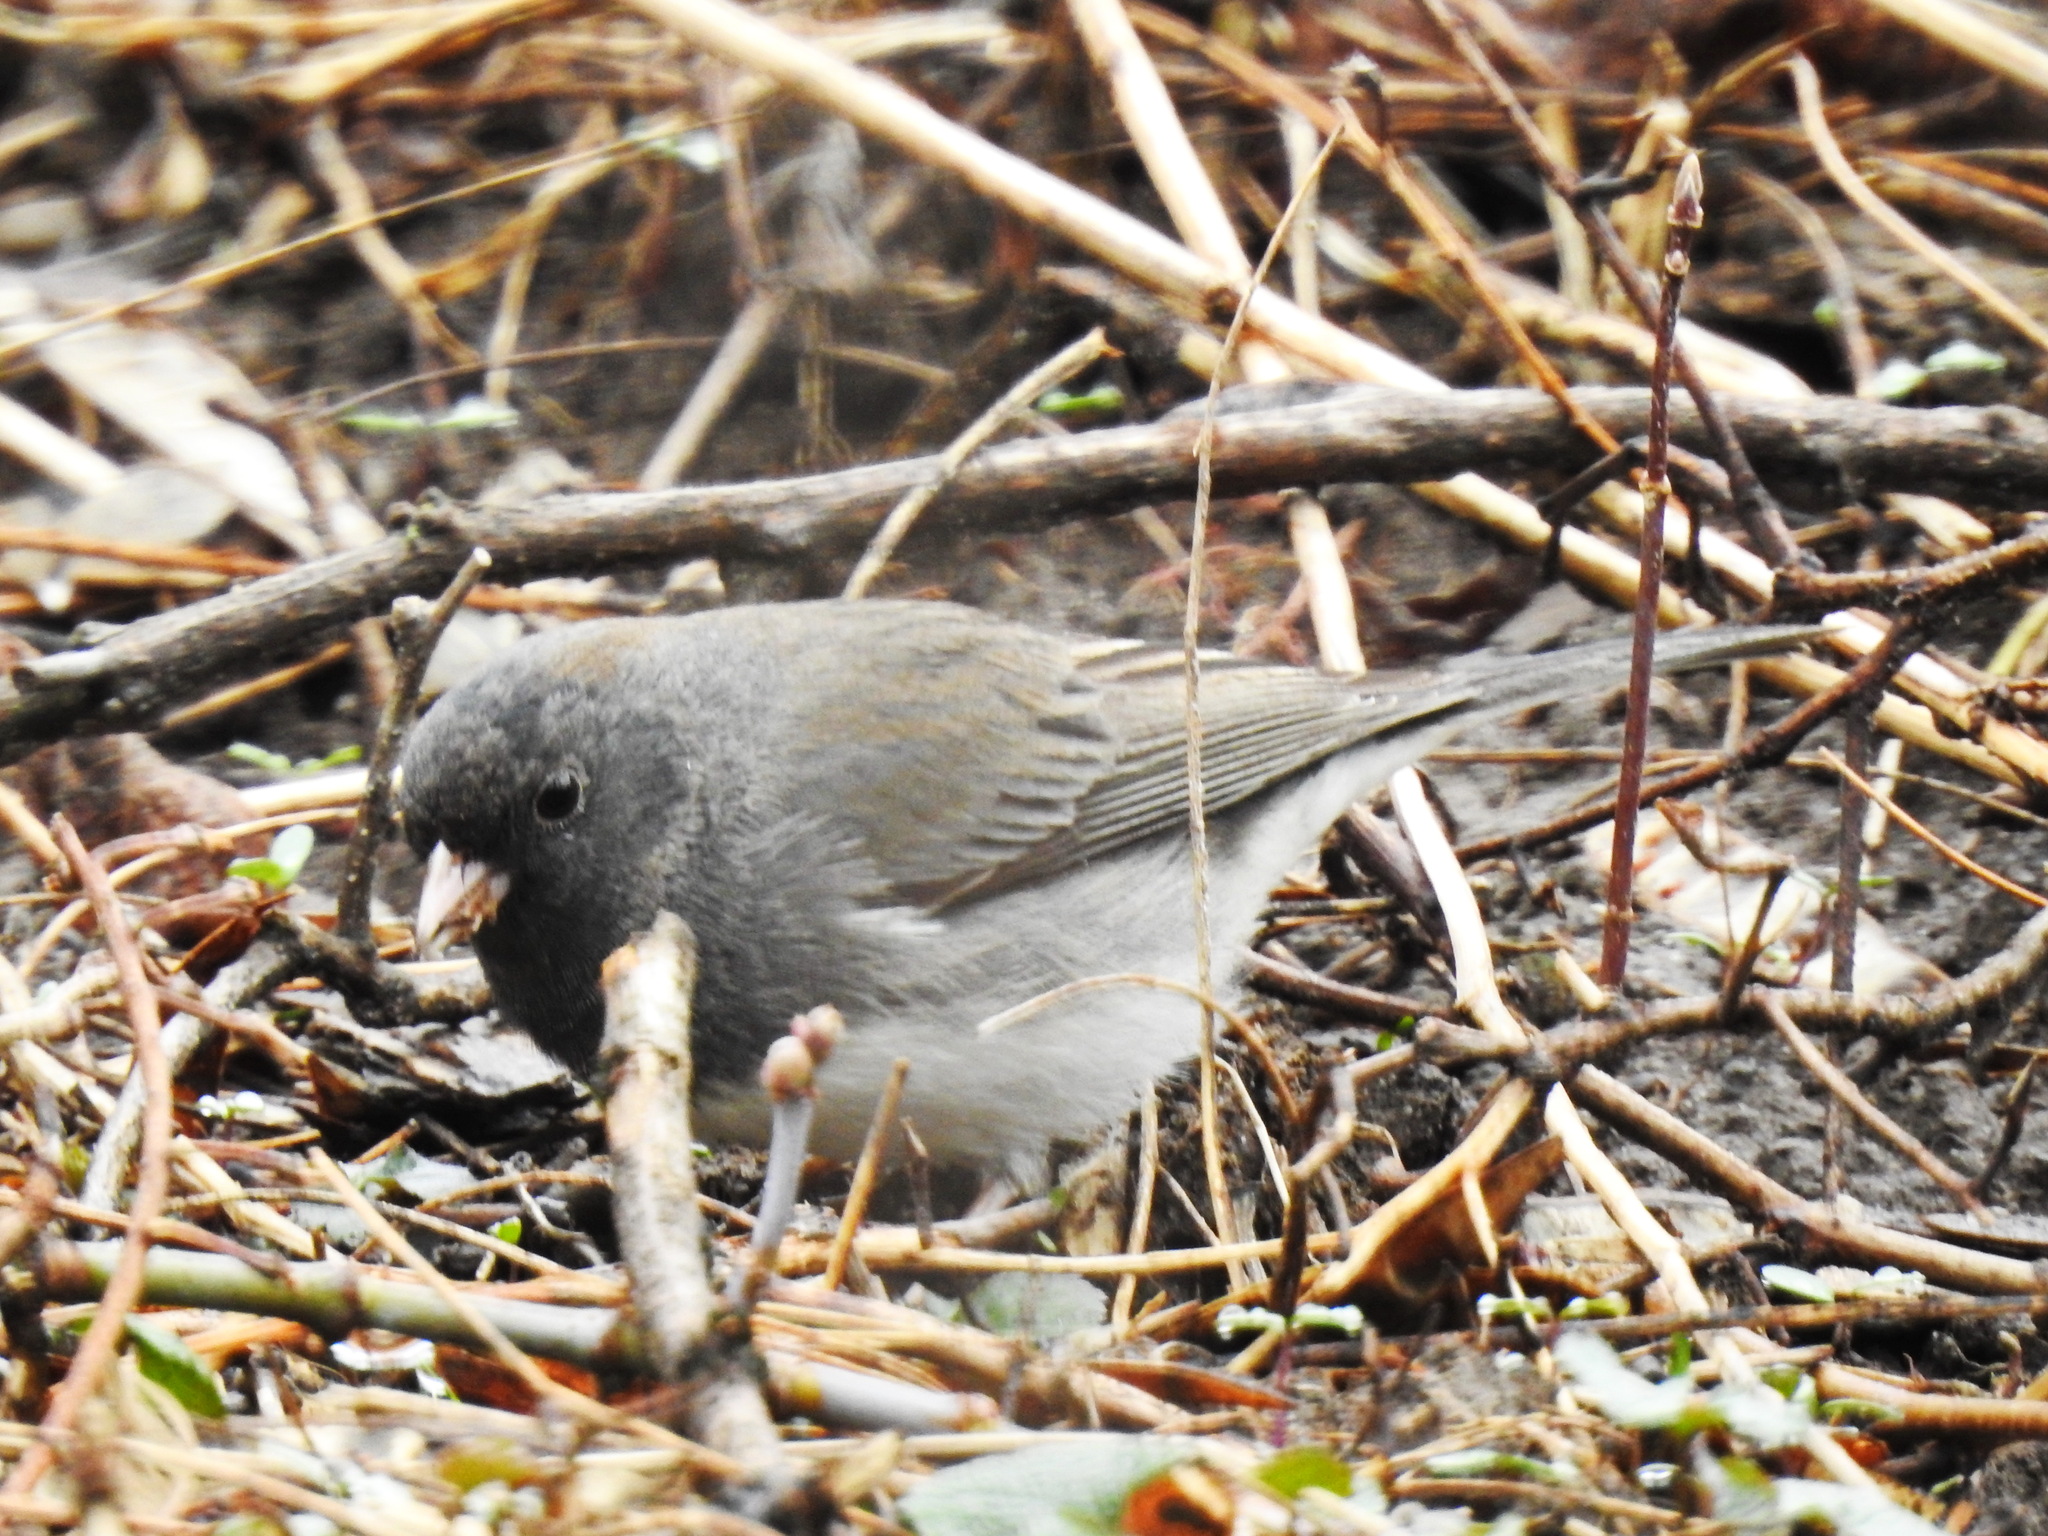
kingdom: Animalia
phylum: Chordata
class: Aves
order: Passeriformes
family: Passerellidae
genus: Junco
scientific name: Junco hyemalis
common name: Dark-eyed junco
